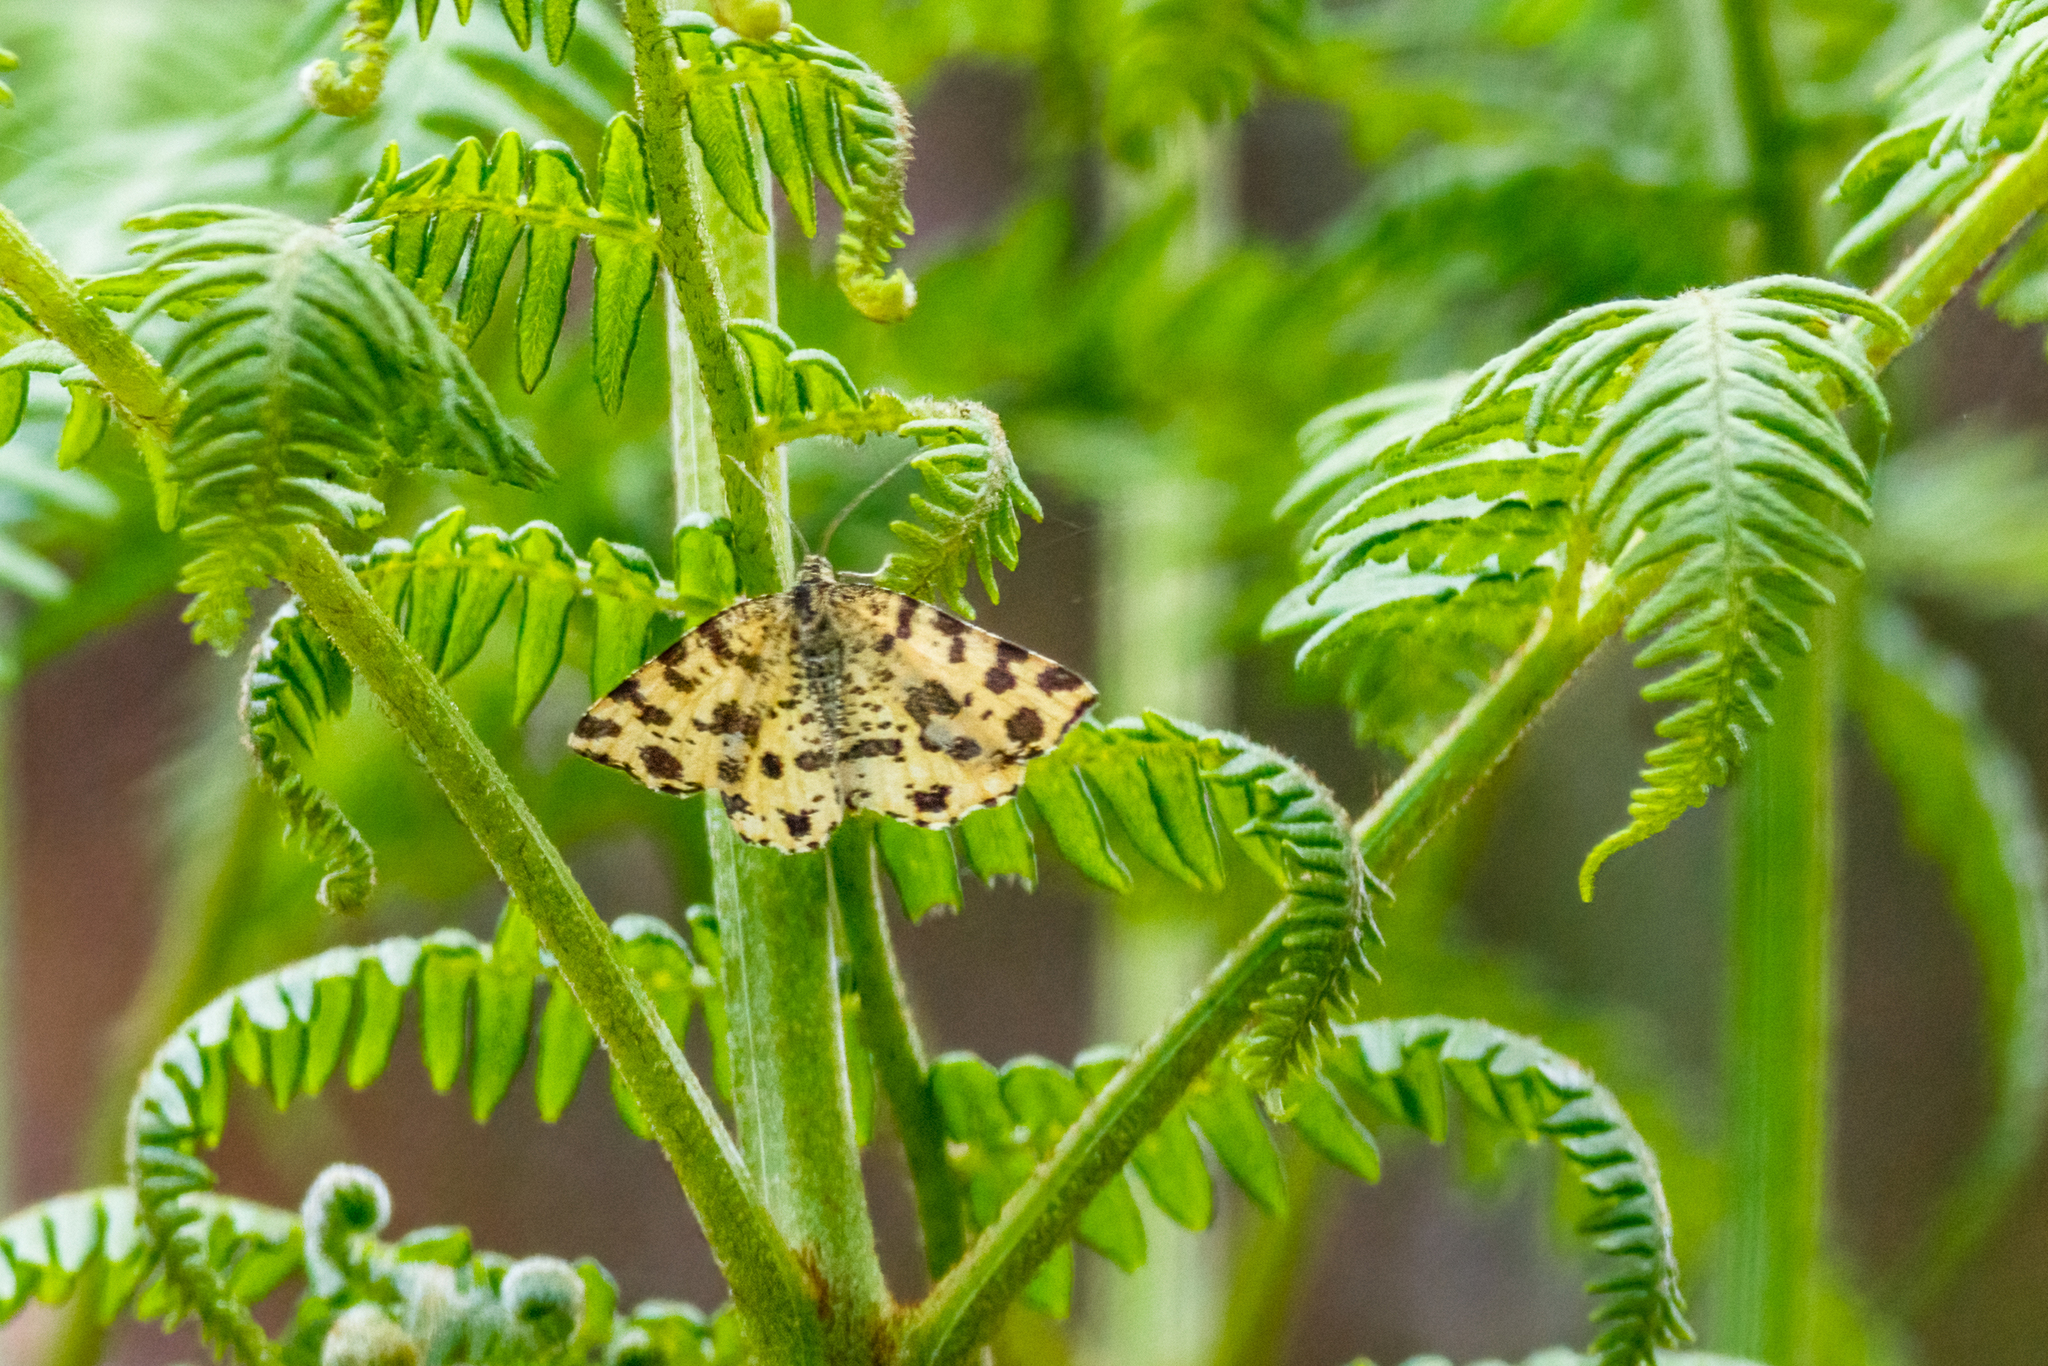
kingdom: Animalia
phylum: Arthropoda
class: Insecta
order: Lepidoptera
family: Geometridae
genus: Pseudopanthera
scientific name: Pseudopanthera macularia
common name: Speckled yellow
